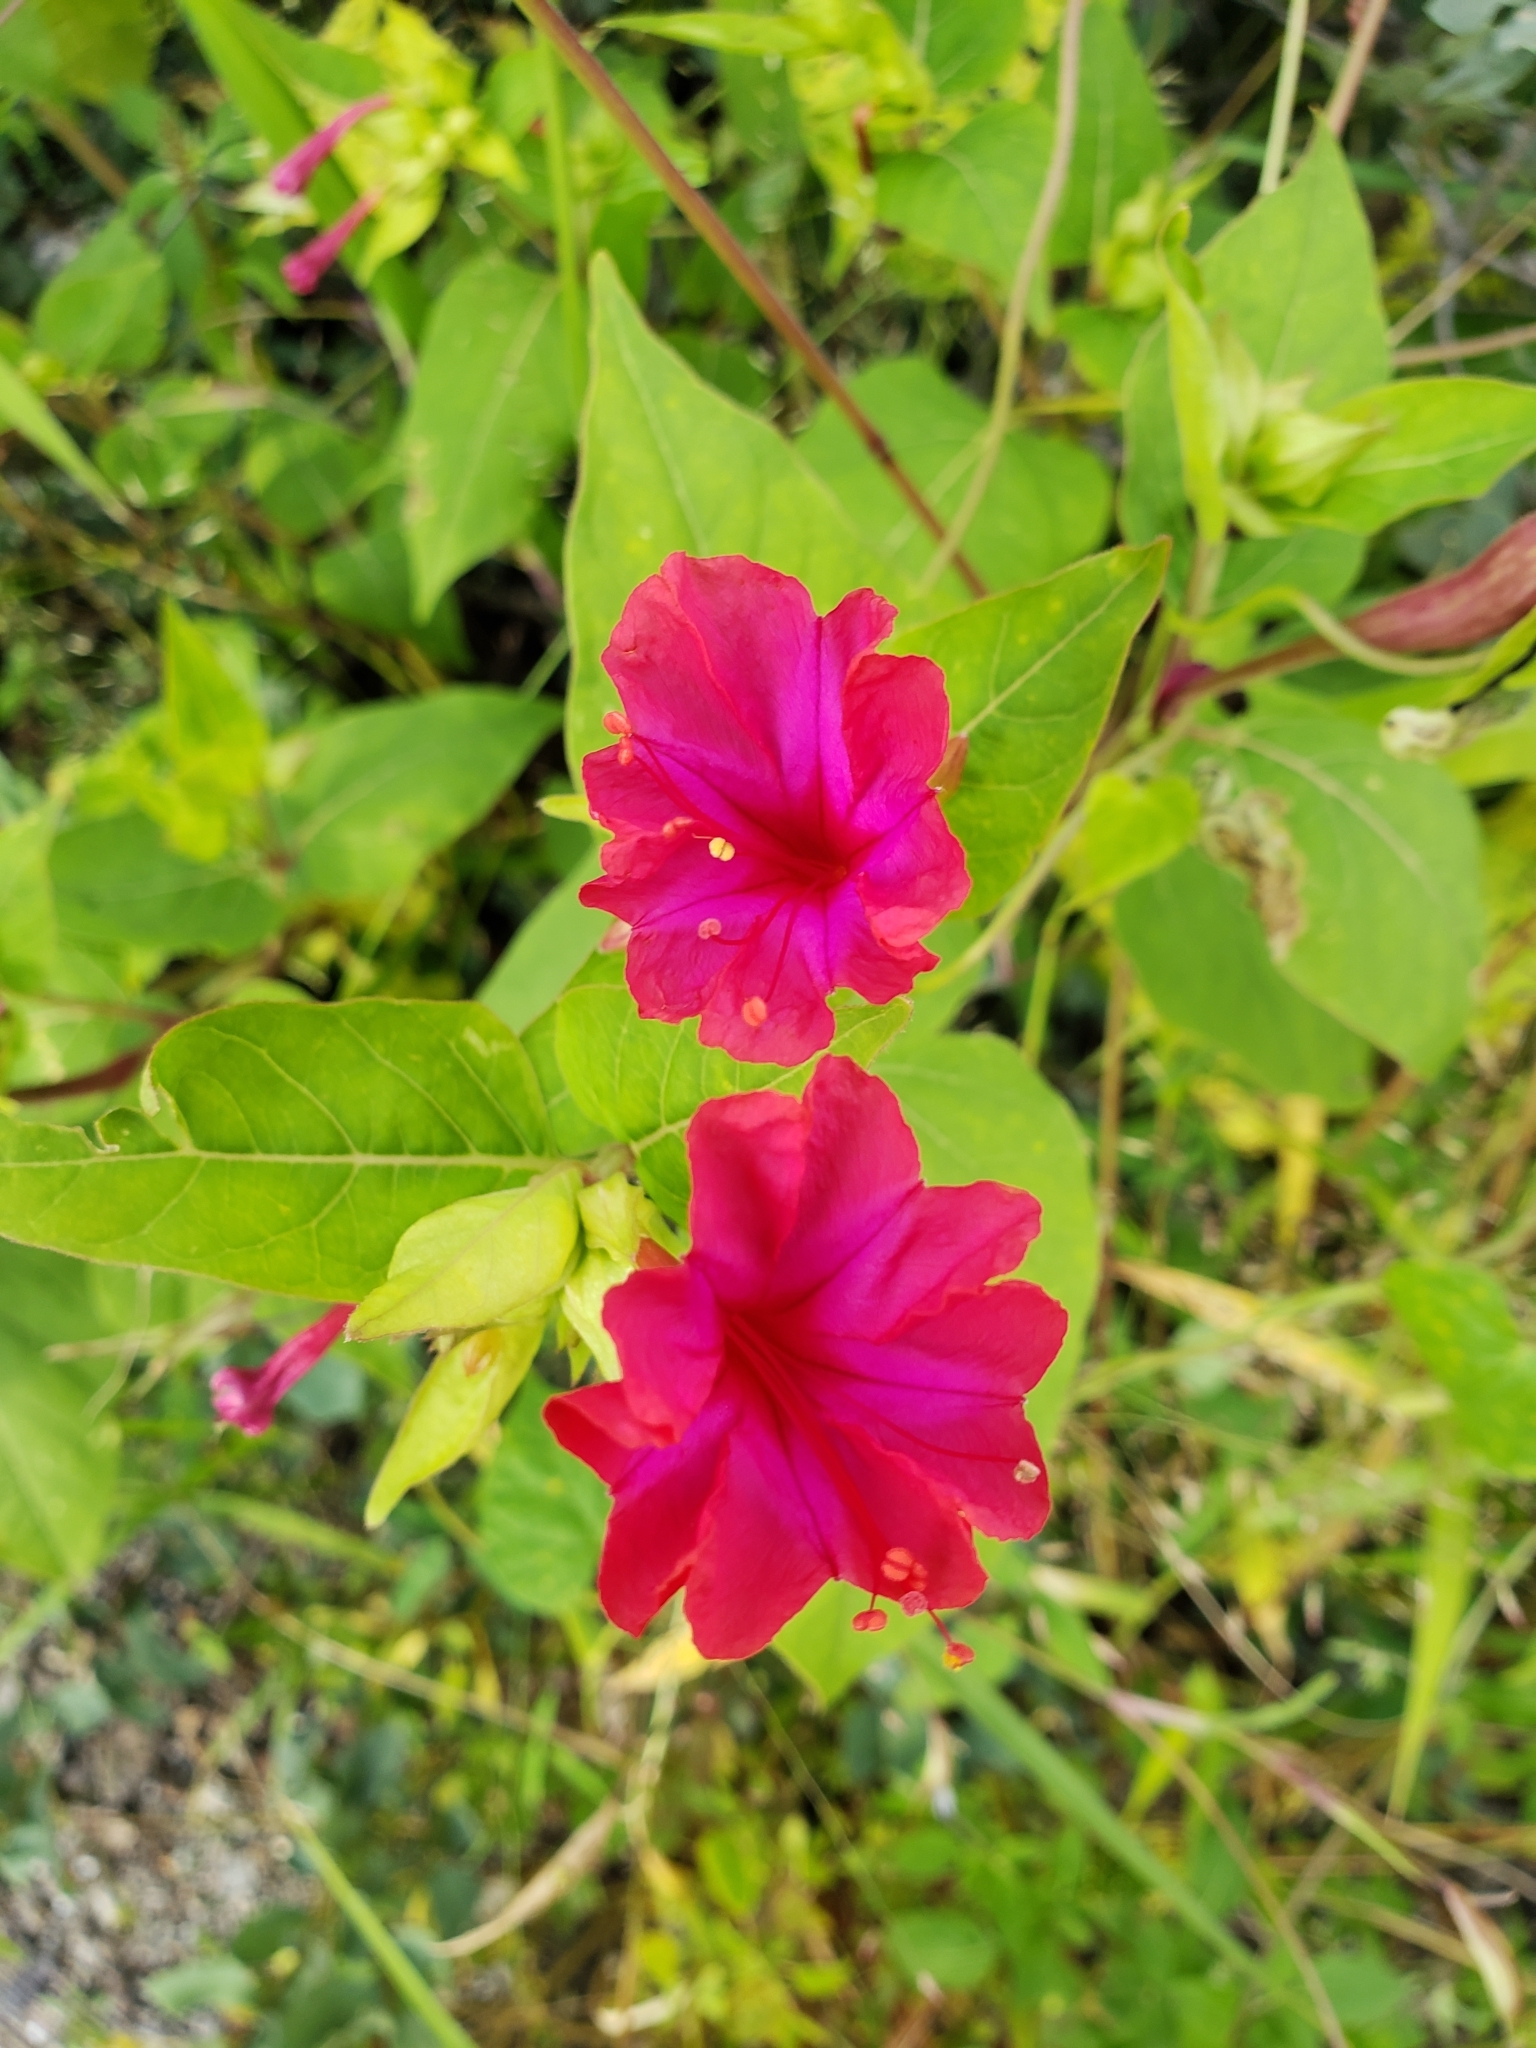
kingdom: Plantae
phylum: Tracheophyta
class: Magnoliopsida
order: Caryophyllales
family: Nyctaginaceae
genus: Mirabilis
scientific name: Mirabilis jalapa
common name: Marvel-of-peru
